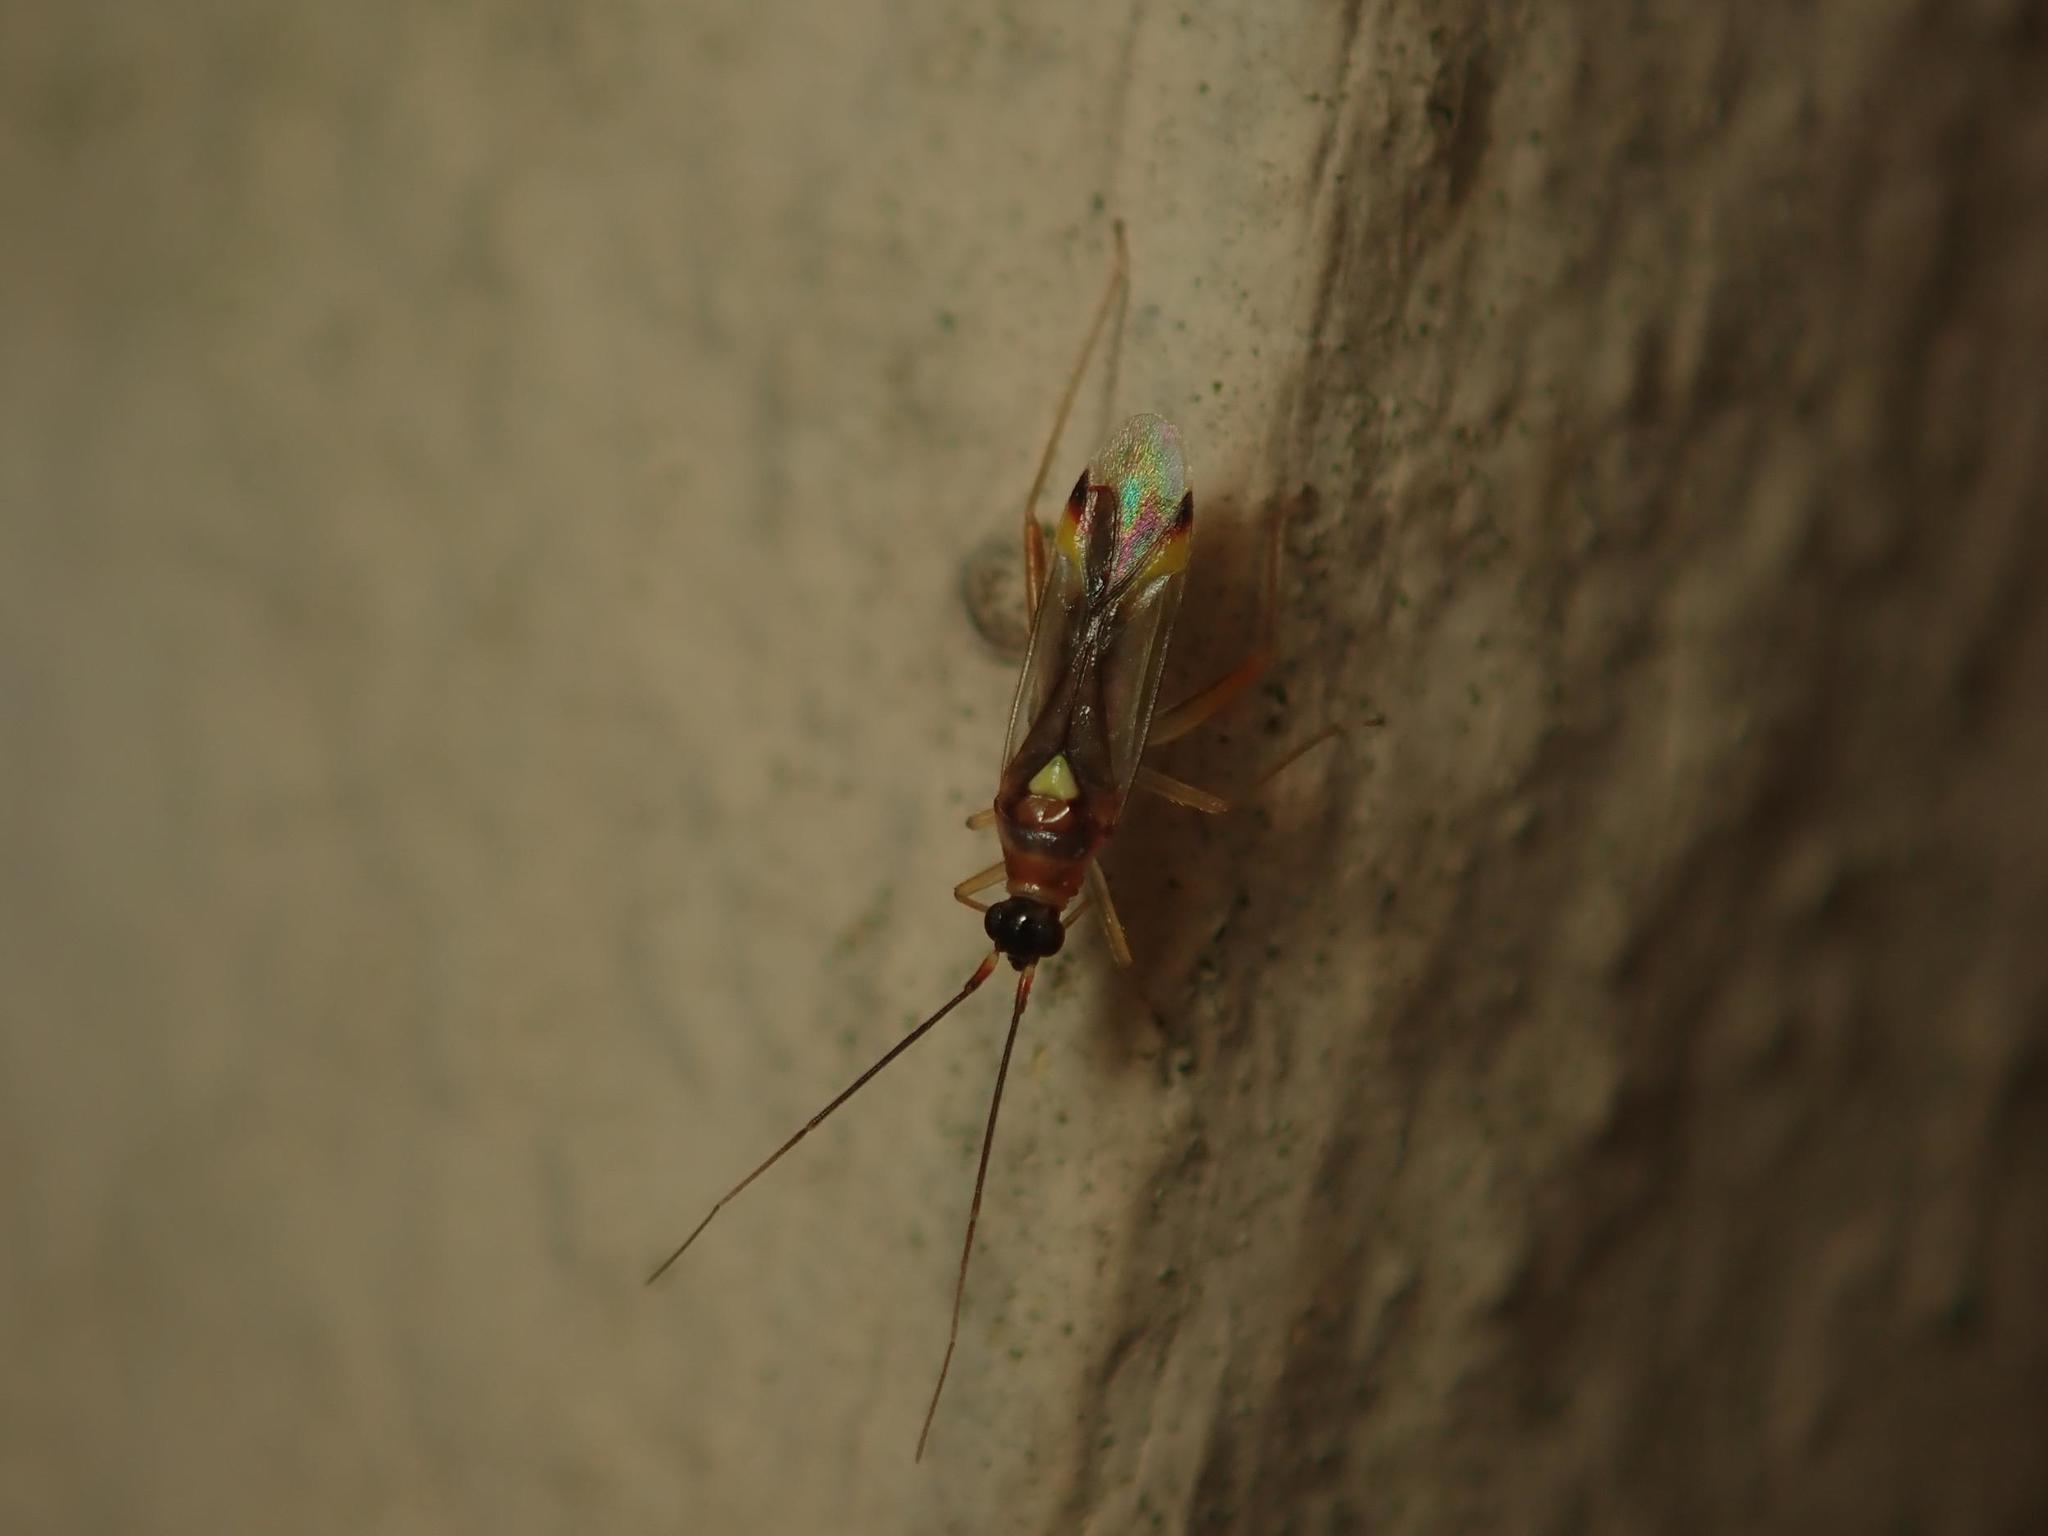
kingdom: Animalia
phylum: Arthropoda
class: Insecta
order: Hemiptera
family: Miridae
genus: Campyloneura
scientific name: Campyloneura virgula
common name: Predatory bug
